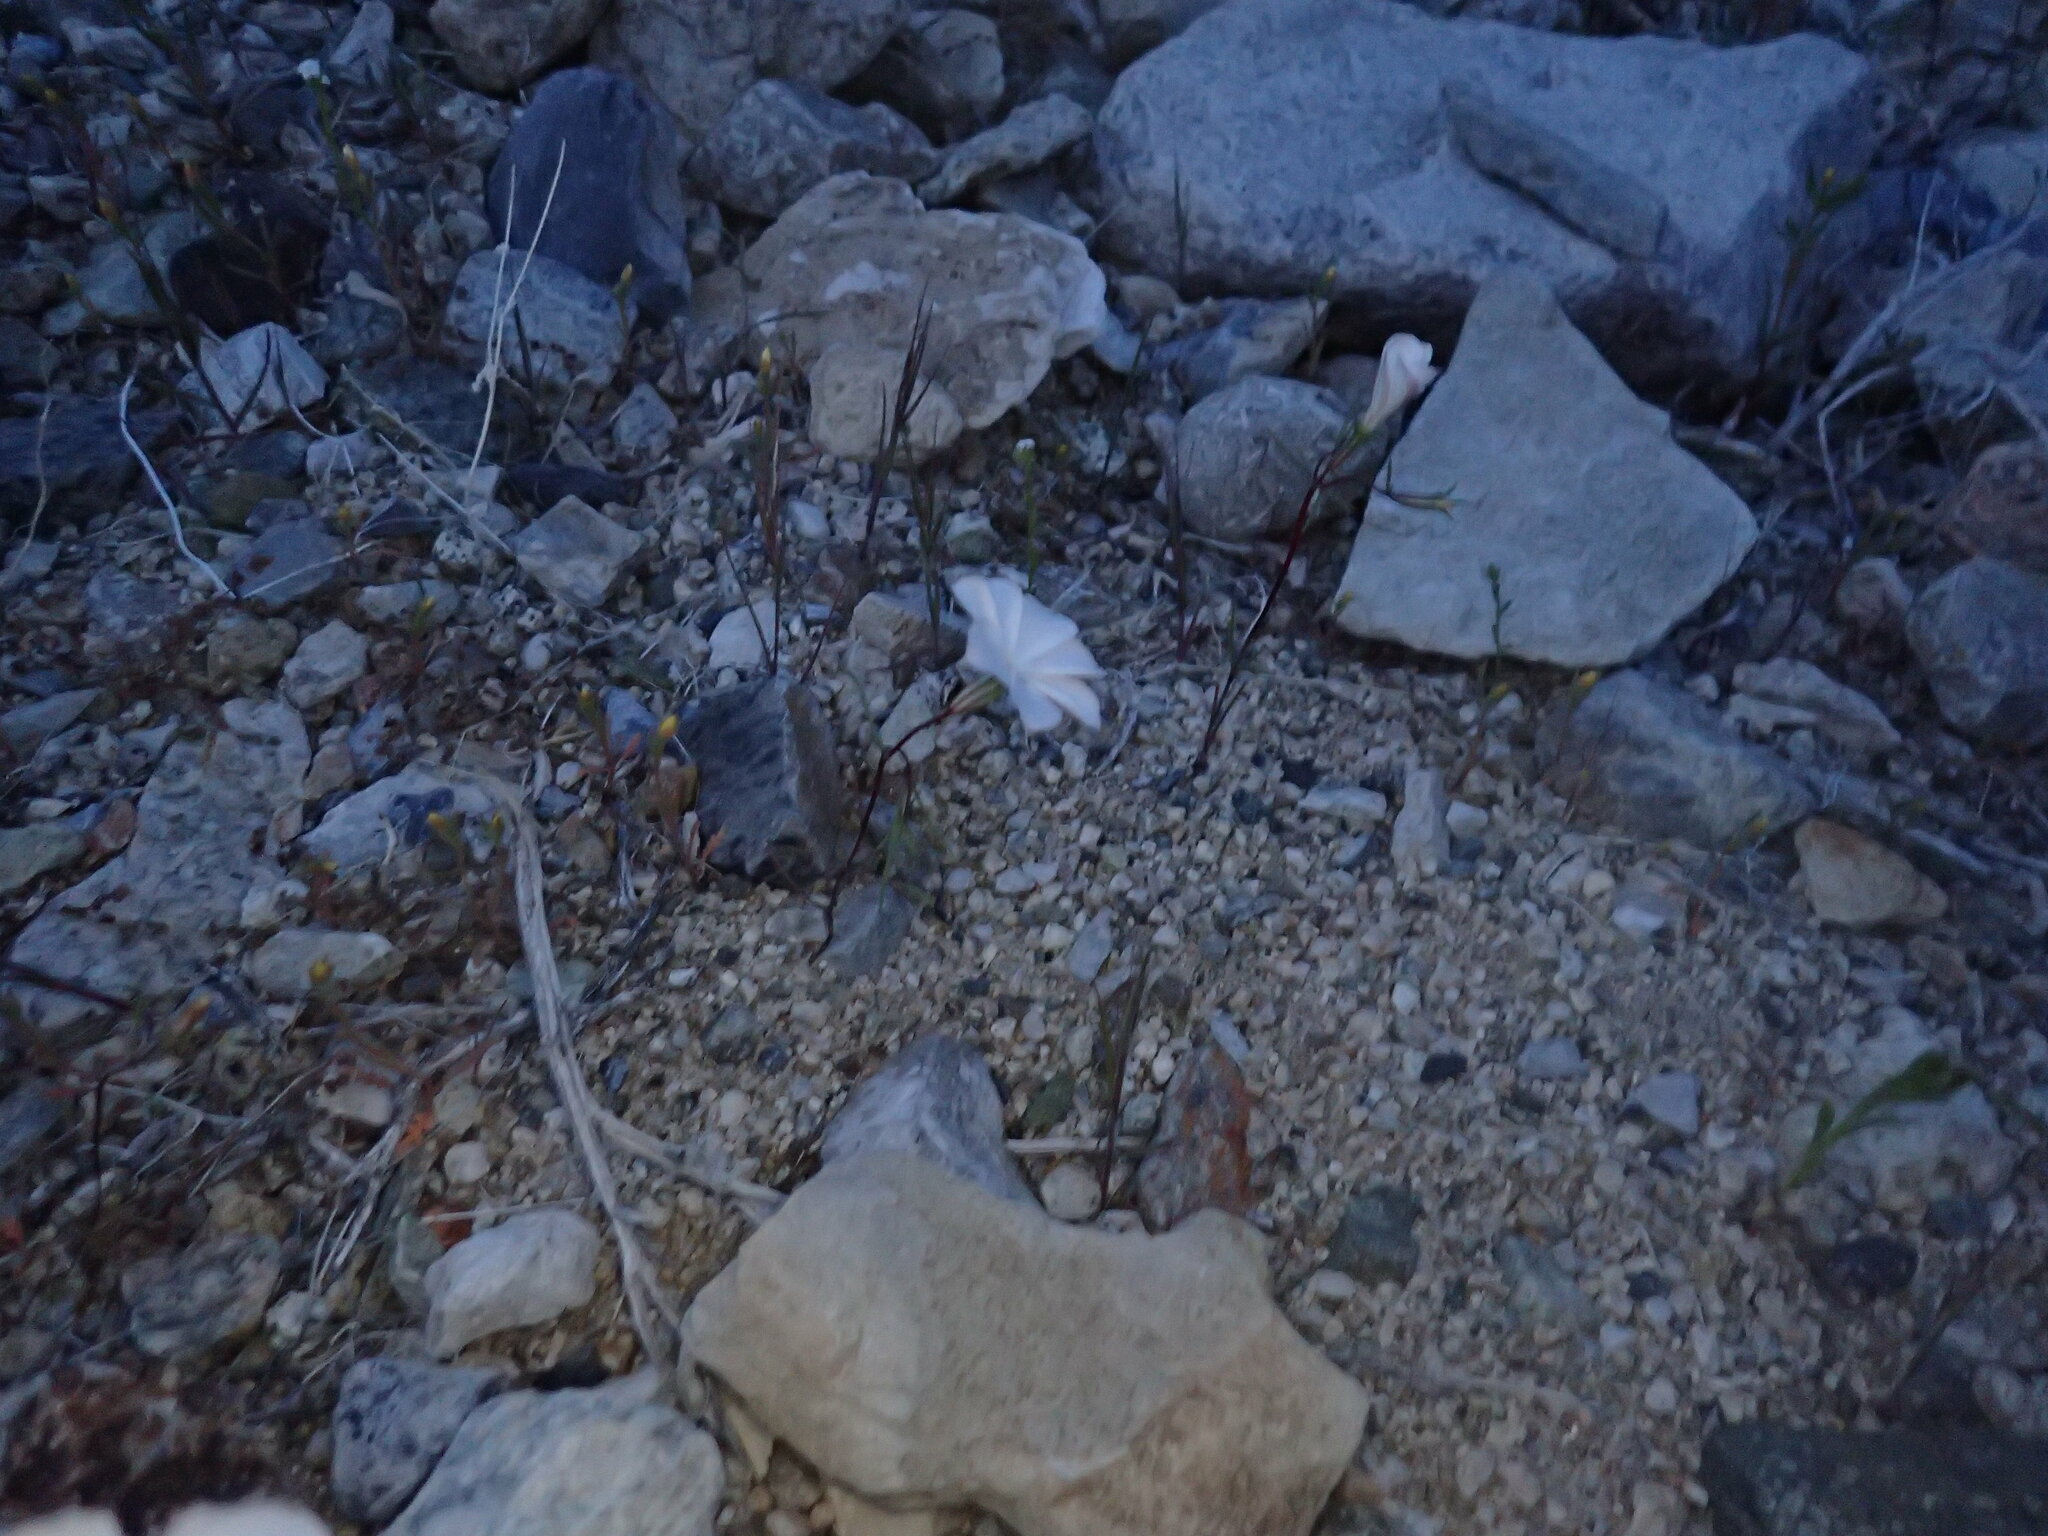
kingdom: Plantae
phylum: Tracheophyta
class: Magnoliopsida
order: Ericales
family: Polemoniaceae
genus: Linanthus
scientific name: Linanthus dichotomus
